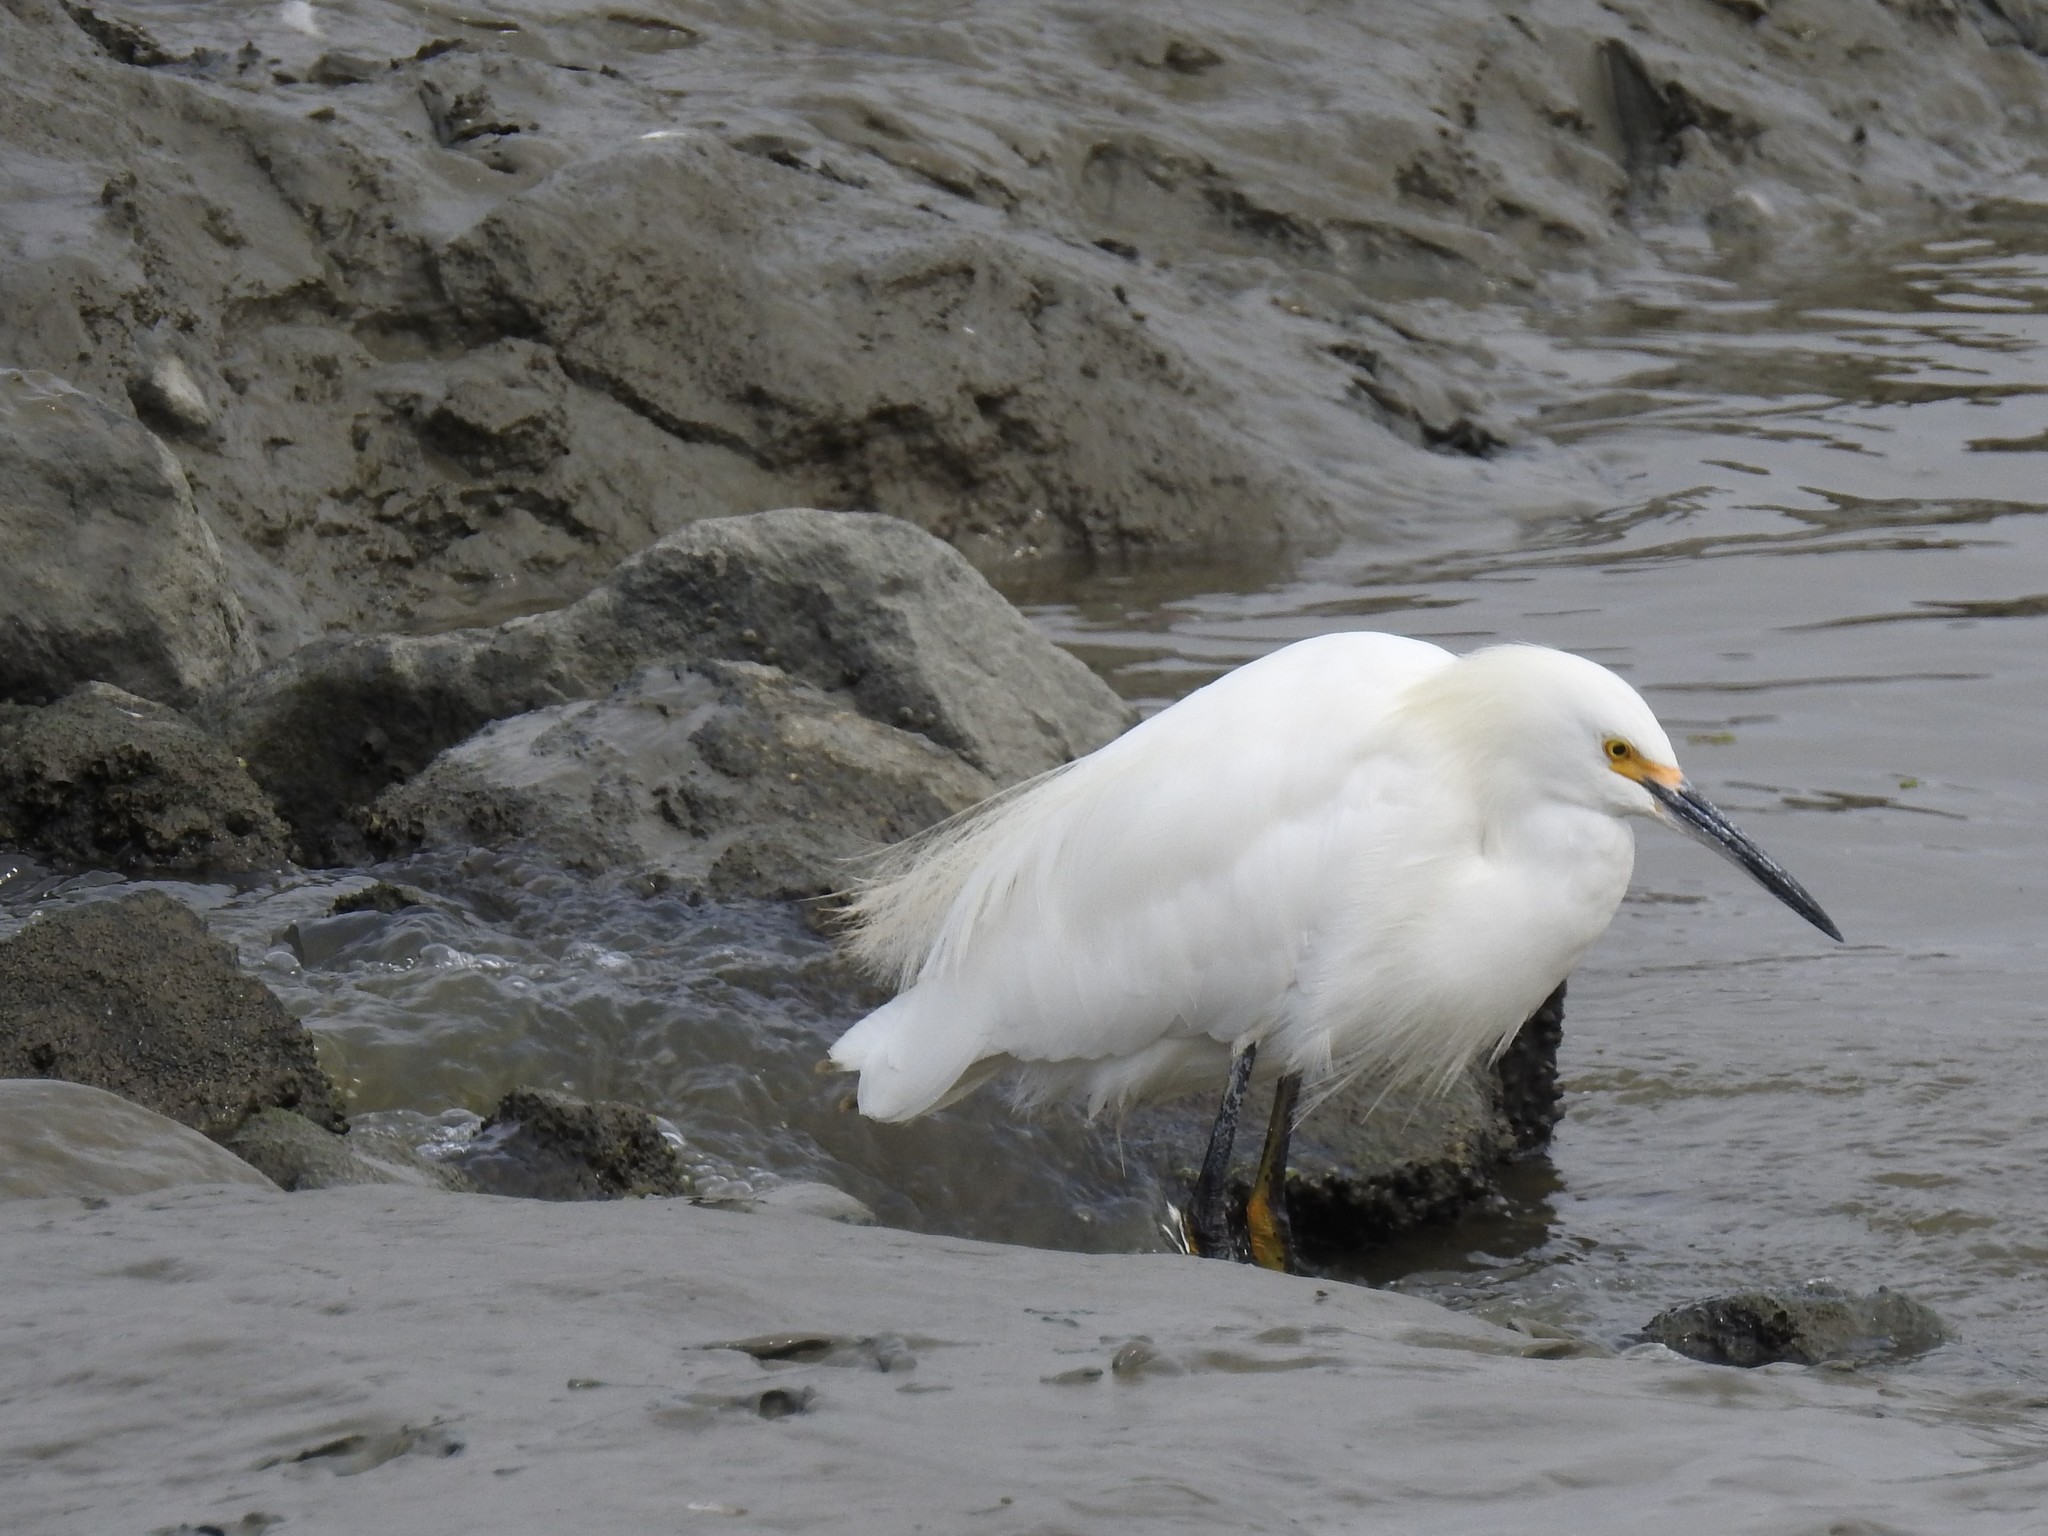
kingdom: Animalia
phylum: Chordata
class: Aves
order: Pelecaniformes
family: Ardeidae
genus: Egretta
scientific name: Egretta thula
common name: Snowy egret
